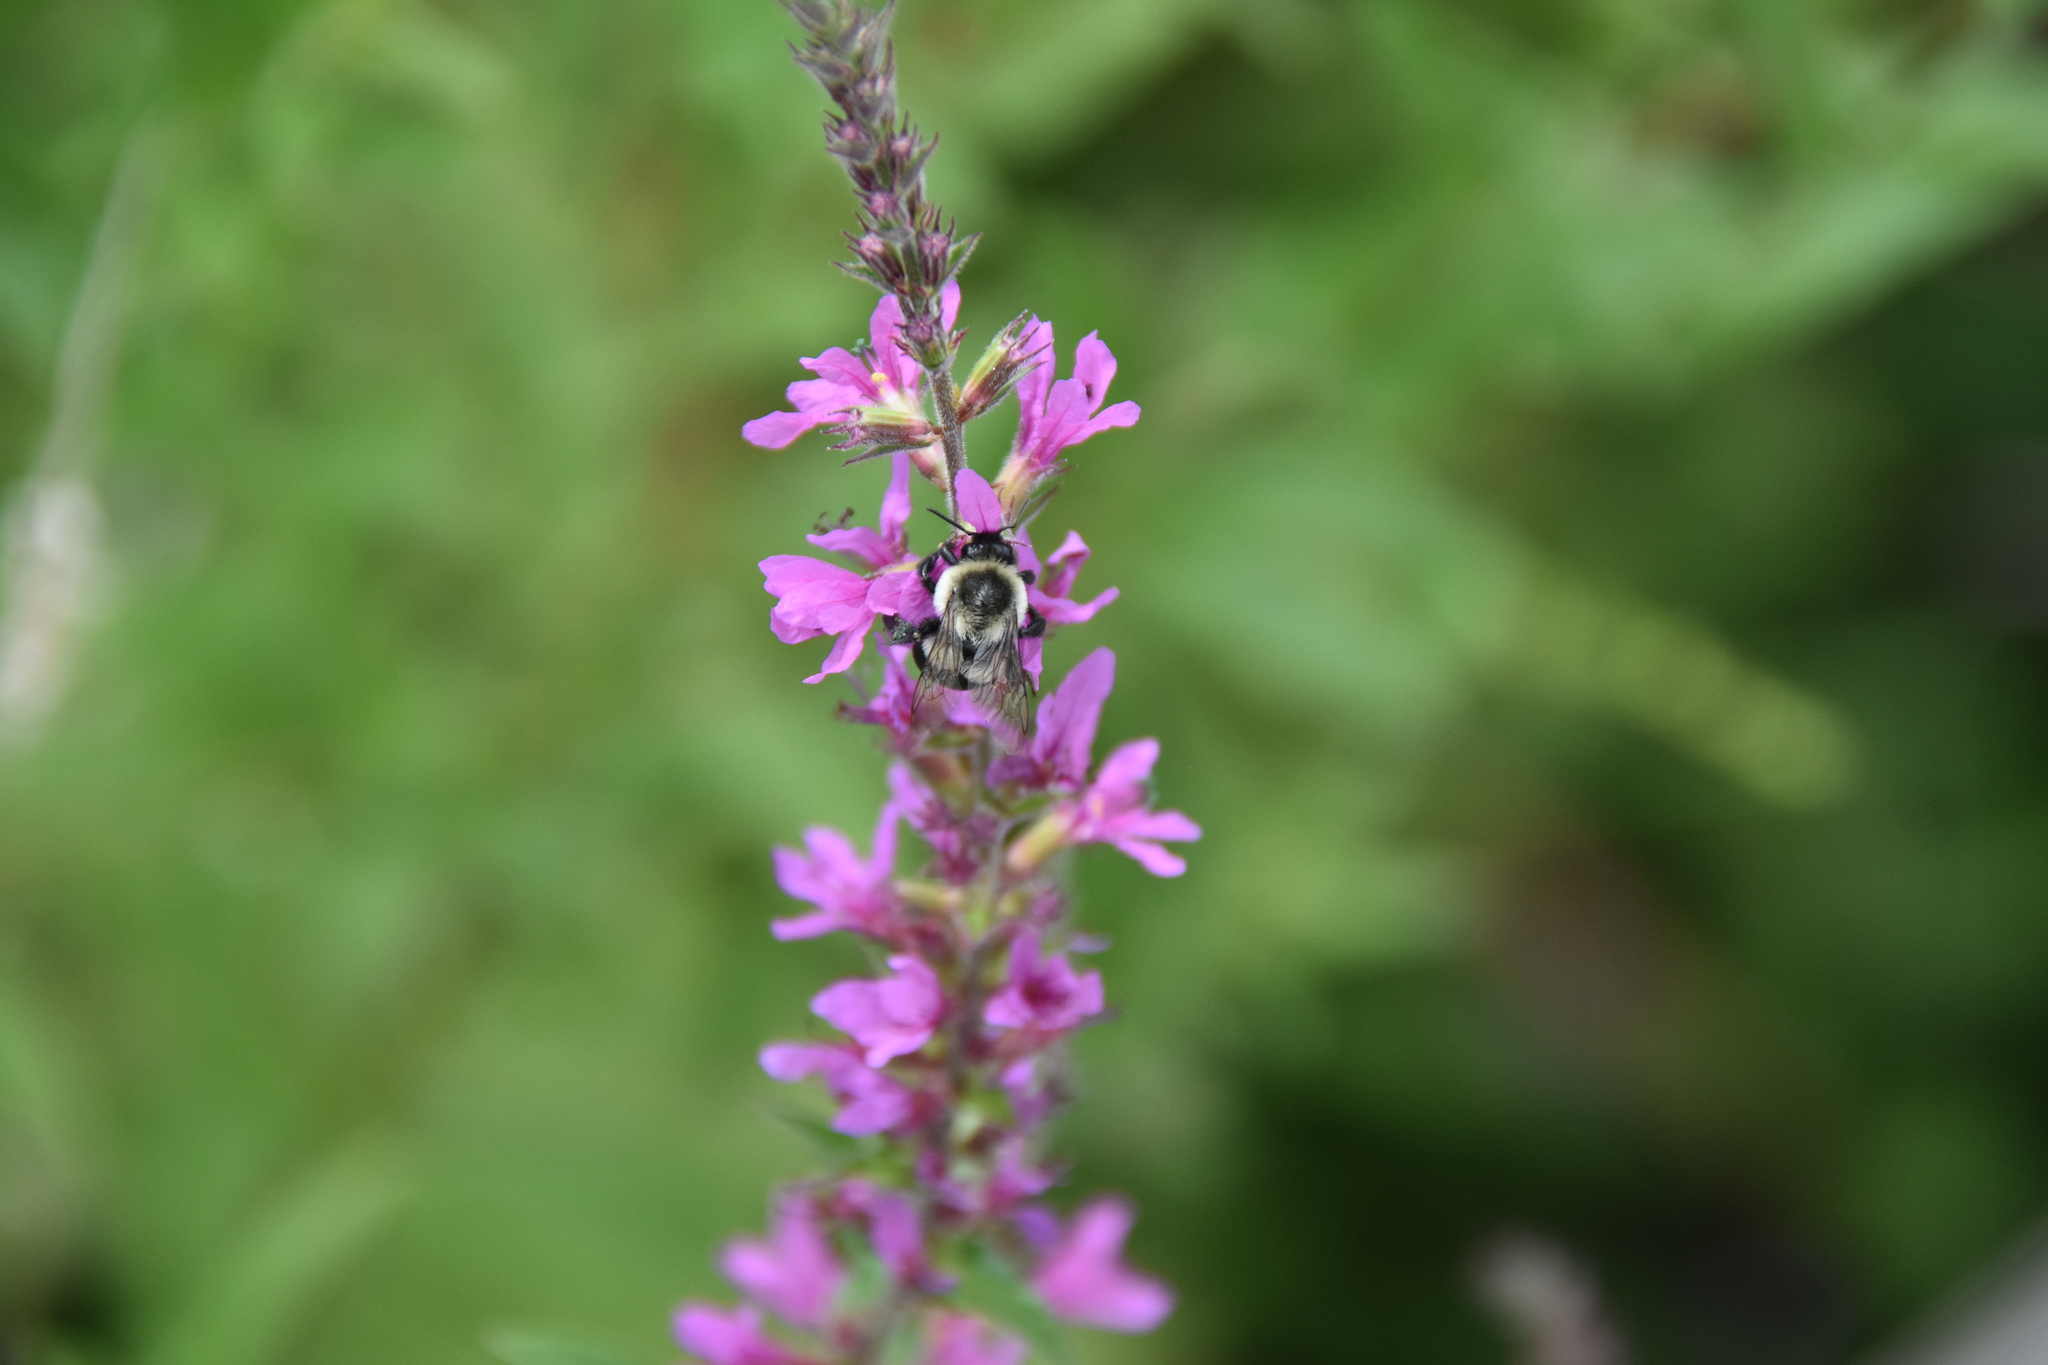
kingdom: Animalia
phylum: Arthropoda
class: Insecta
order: Hymenoptera
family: Apidae
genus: Bombus
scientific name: Bombus impatiens
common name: Common eastern bumble bee
